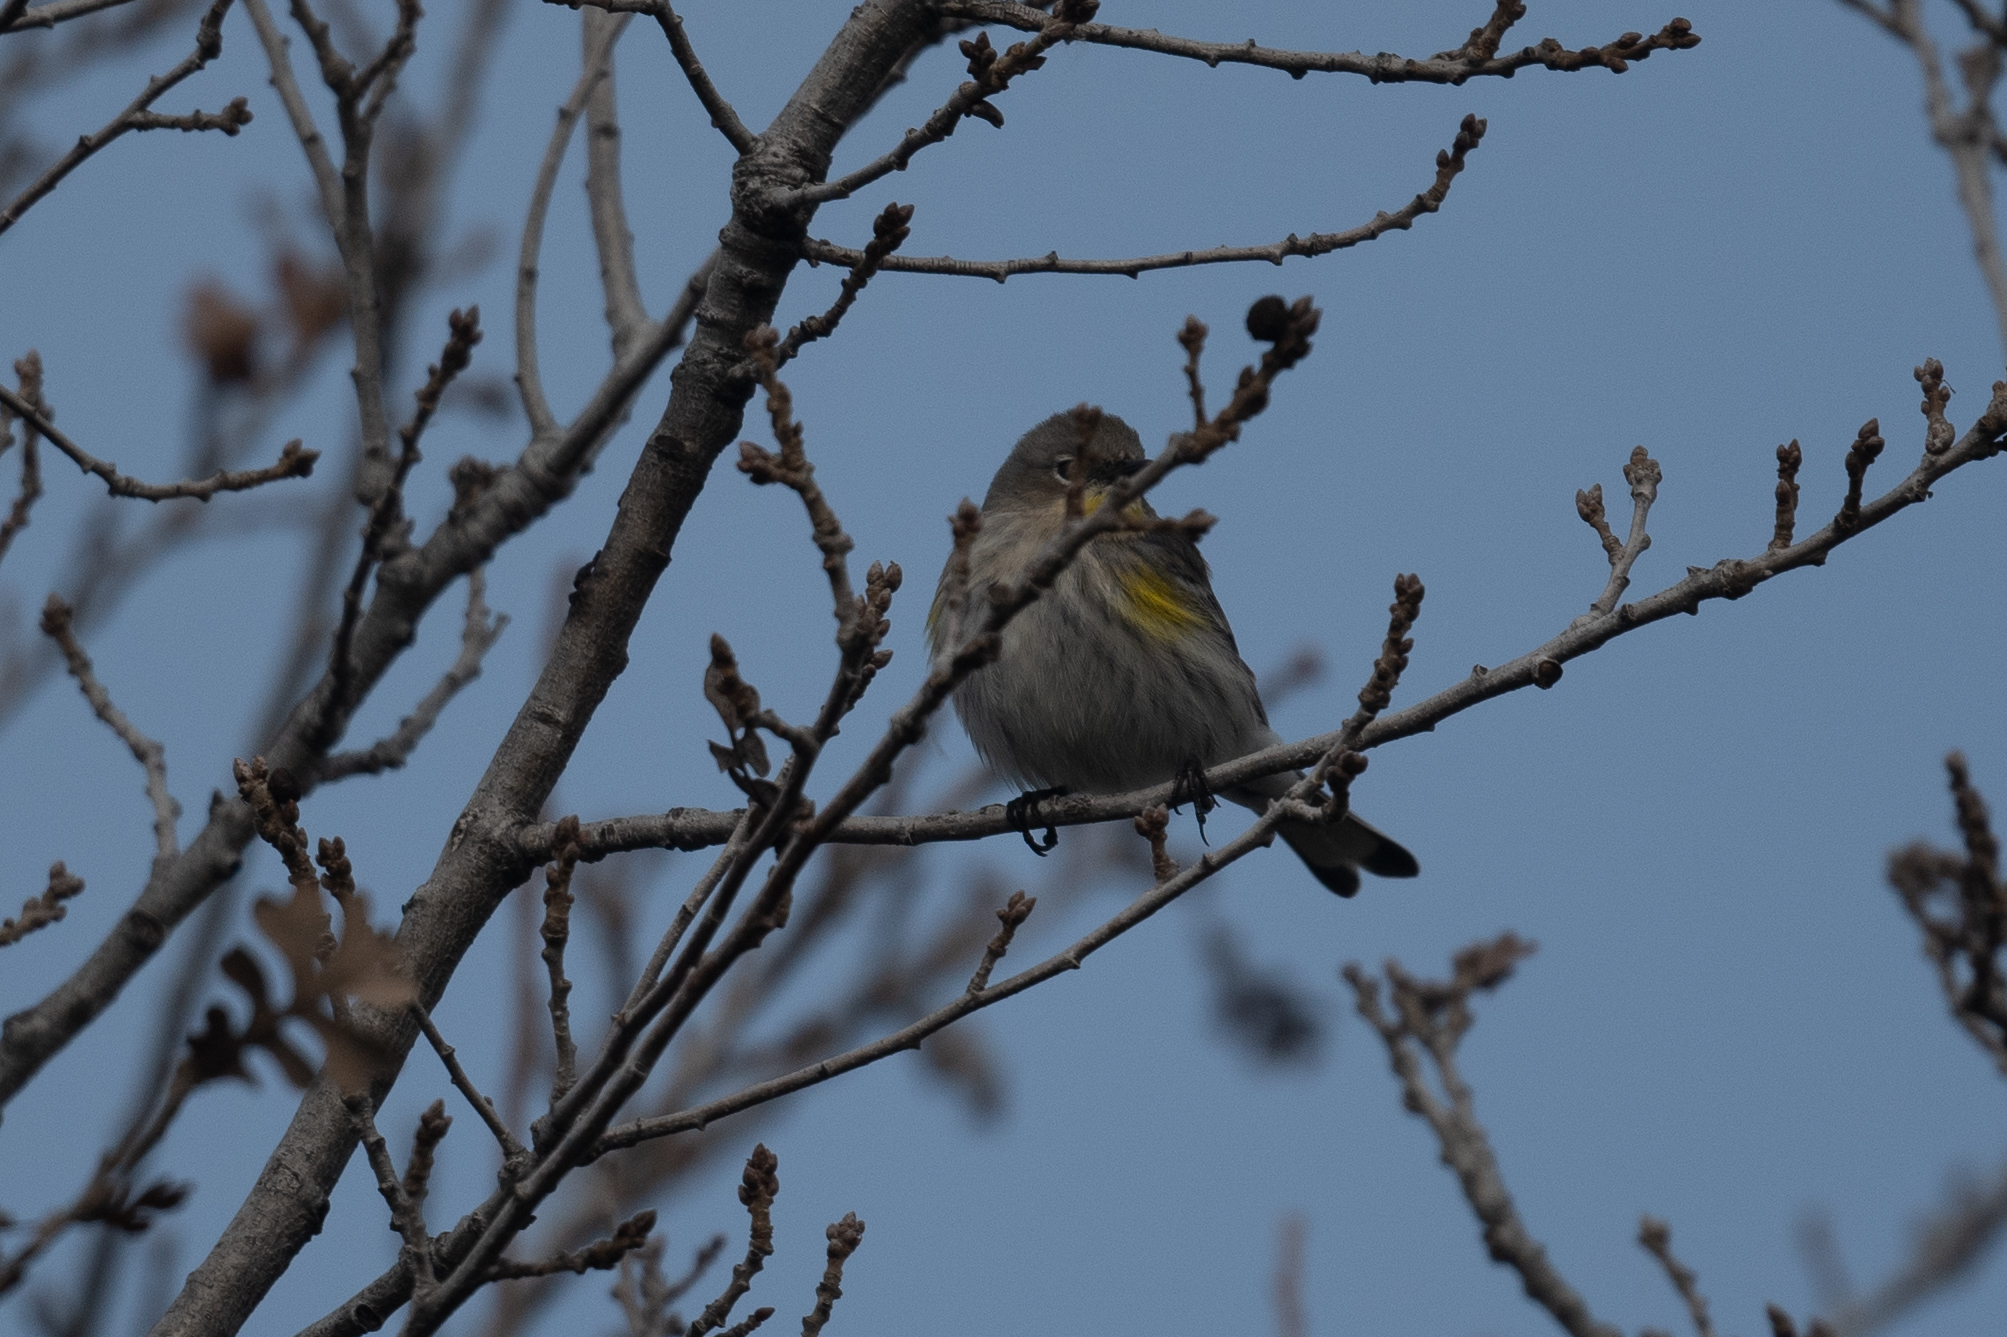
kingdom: Animalia
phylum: Chordata
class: Aves
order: Passeriformes
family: Parulidae
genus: Setophaga
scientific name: Setophaga coronata
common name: Myrtle warbler
